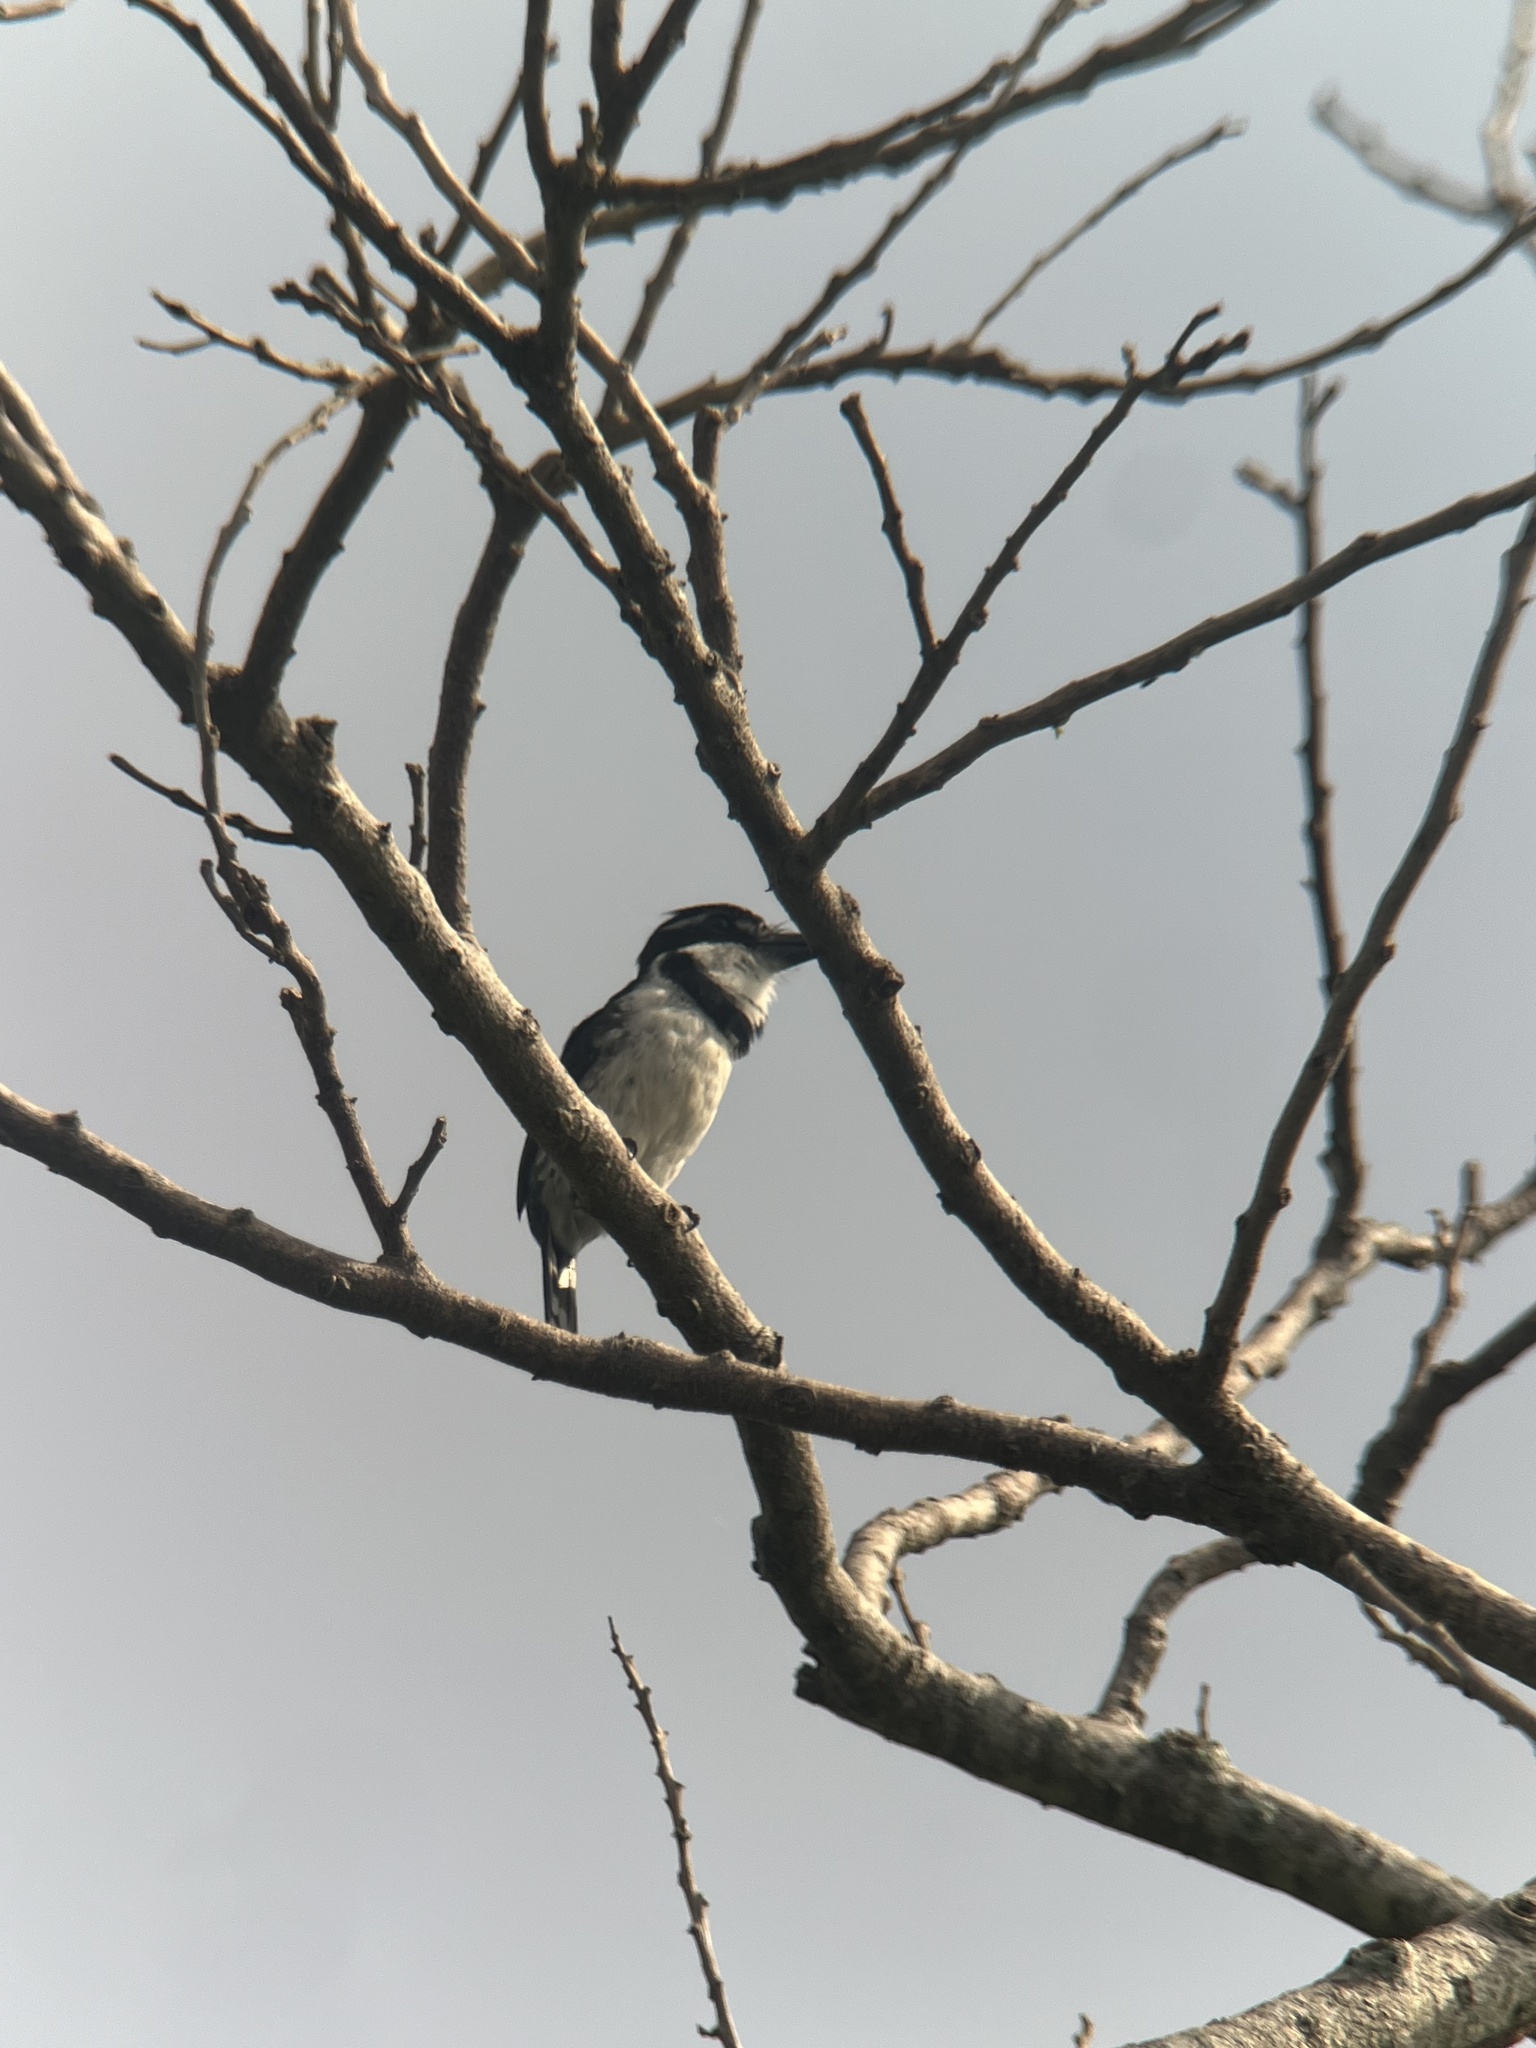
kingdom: Animalia
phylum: Chordata
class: Aves
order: Piciformes
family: Bucconidae
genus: Notharchus
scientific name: Notharchus tectus
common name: Pied puffbird
